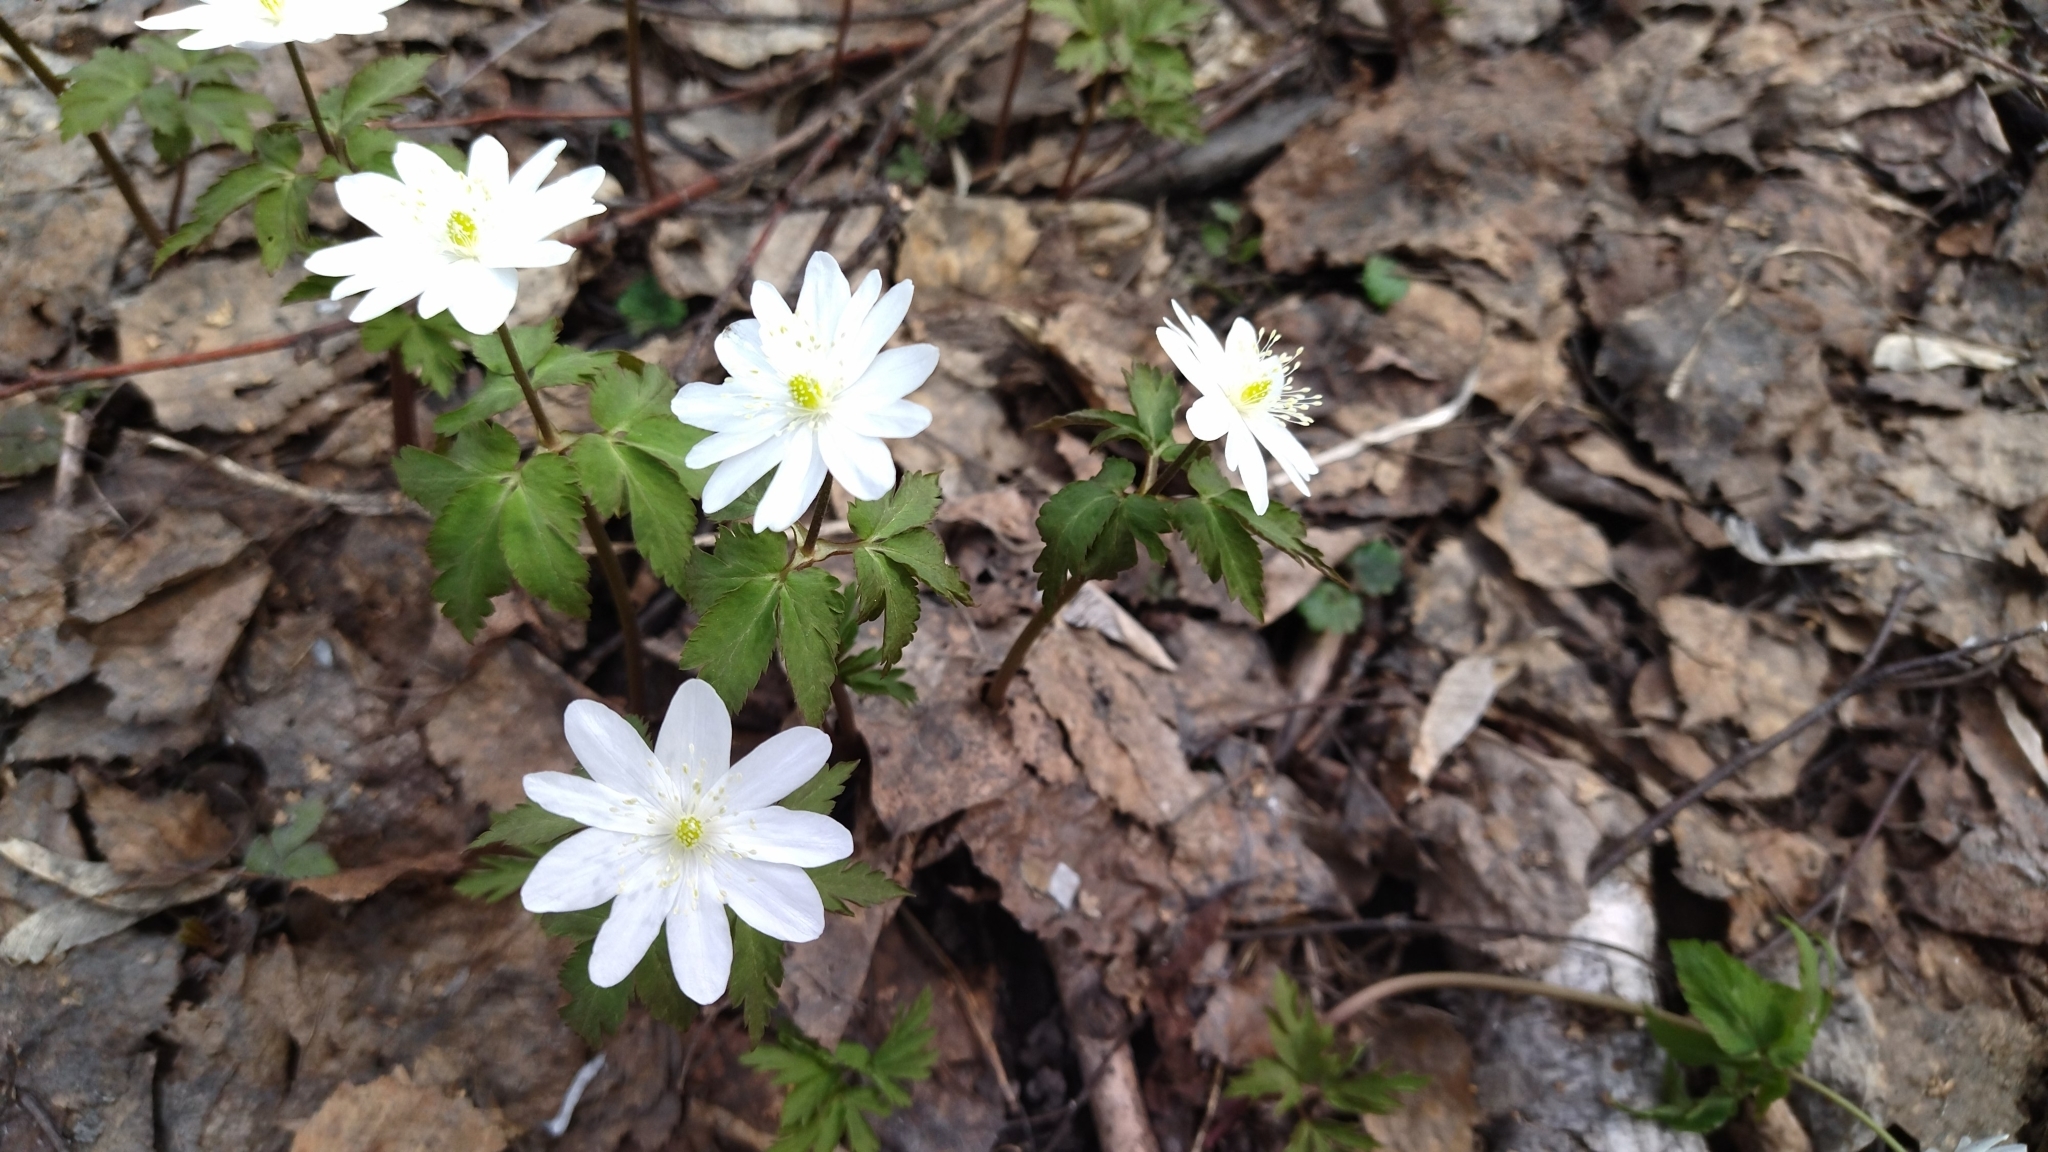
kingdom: Plantae
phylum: Tracheophyta
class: Magnoliopsida
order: Ranunculales
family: Ranunculaceae
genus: Anemone
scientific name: Anemone altaica
